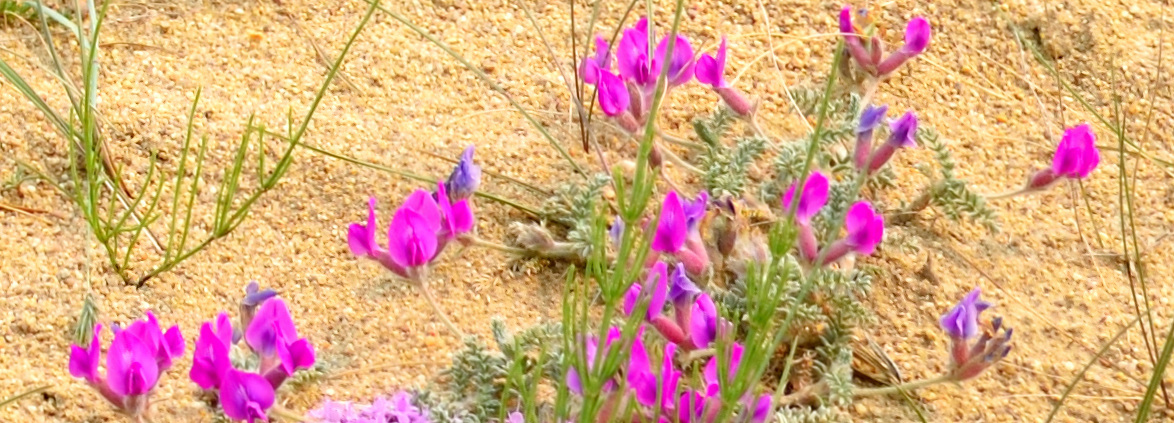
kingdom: Plantae
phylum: Tracheophyta
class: Magnoliopsida
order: Fabales
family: Fabaceae
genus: Oxytropis
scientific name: Oxytropis lanata
